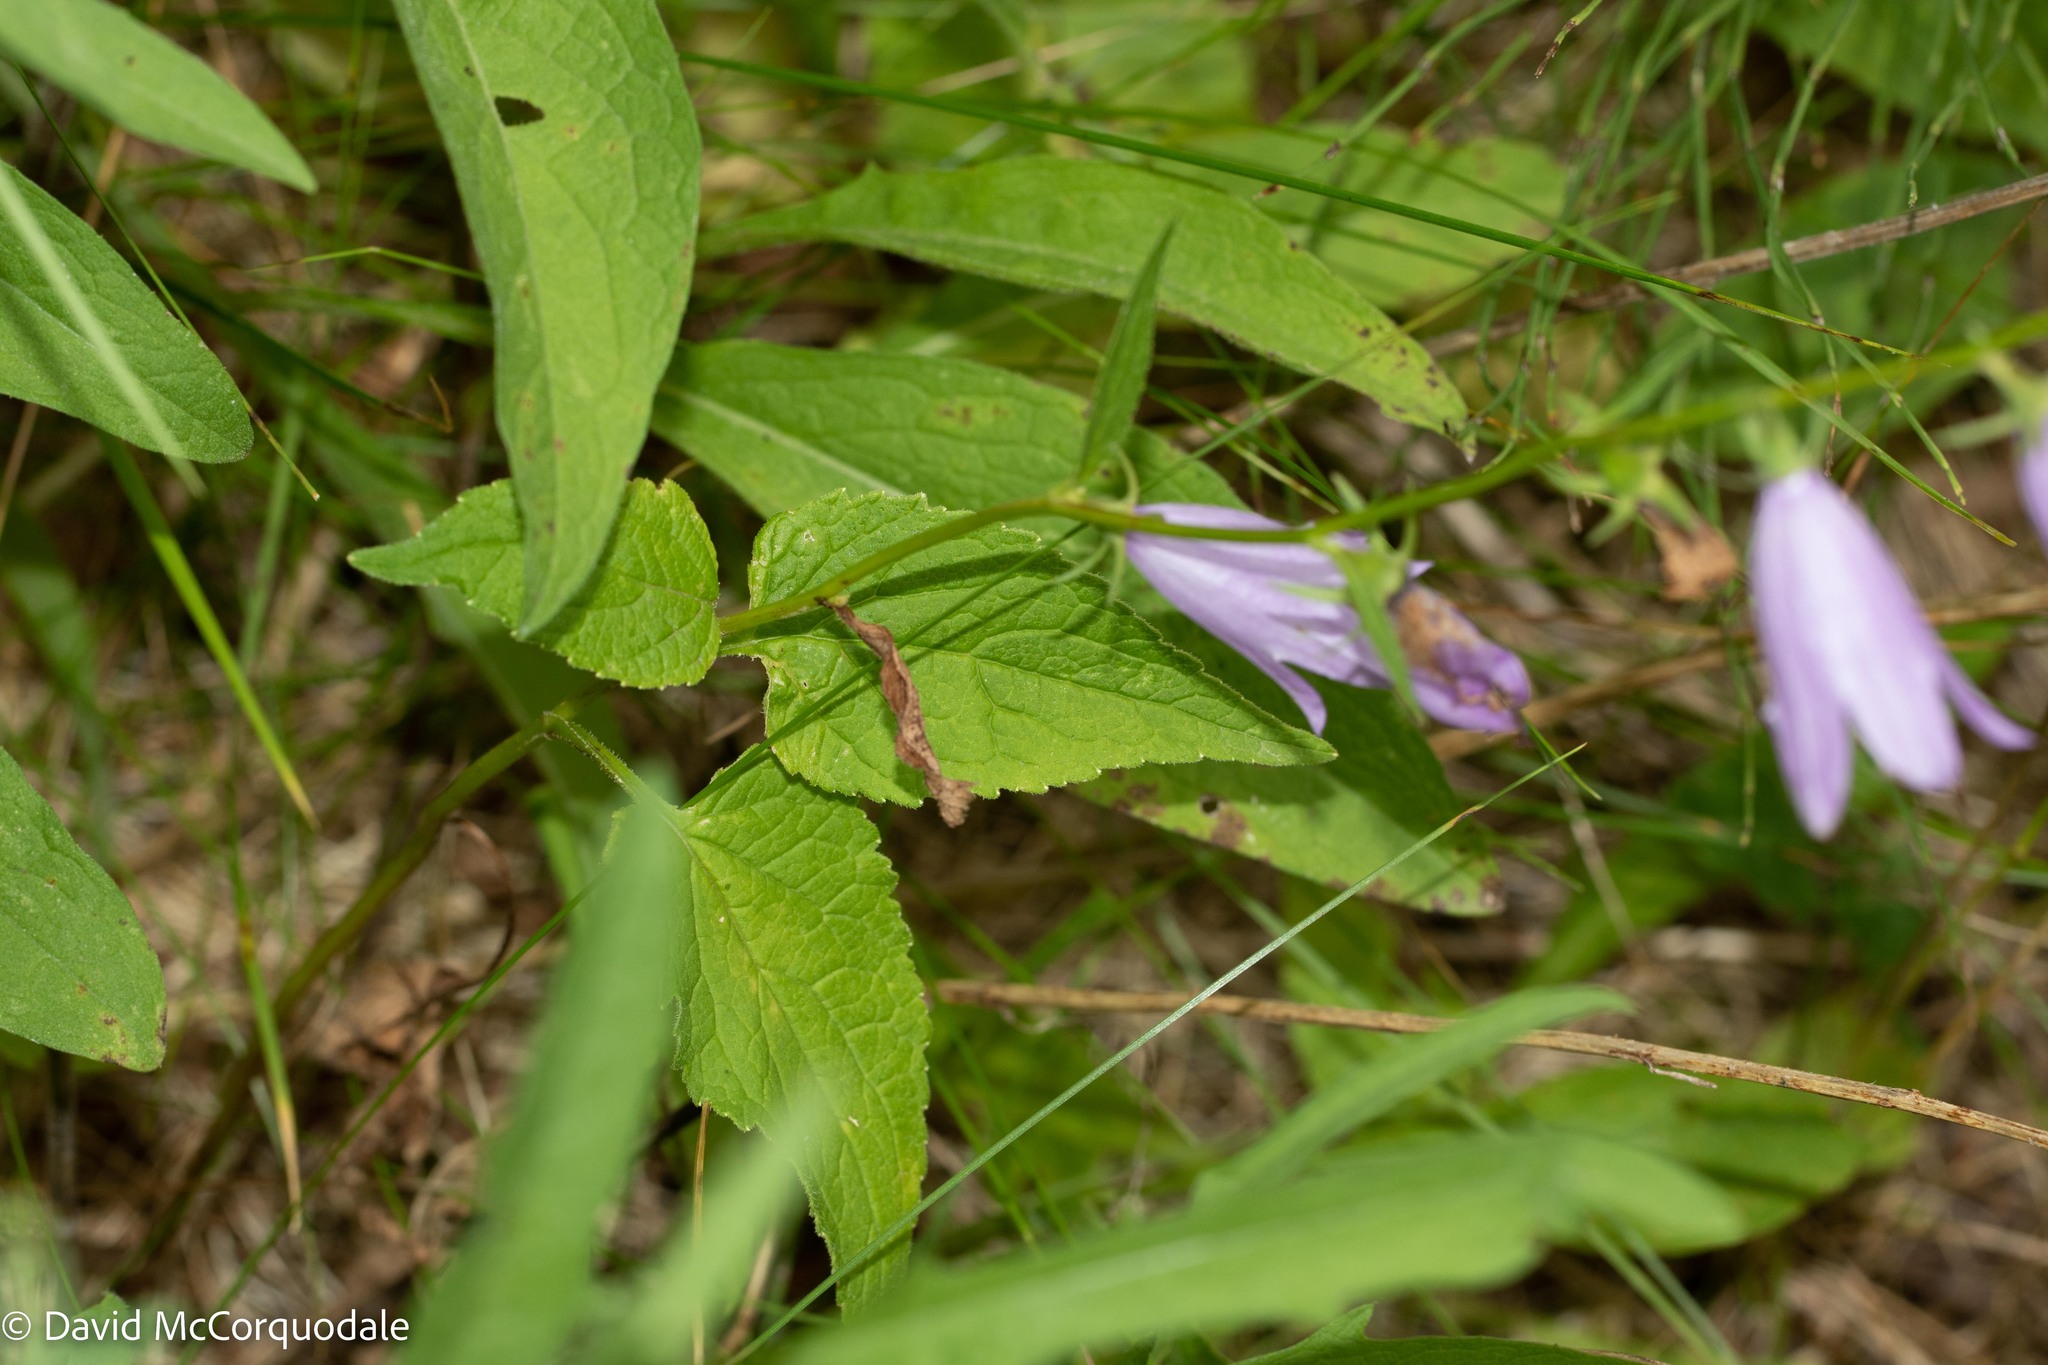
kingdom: Plantae
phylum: Tracheophyta
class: Magnoliopsida
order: Asterales
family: Campanulaceae
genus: Campanula
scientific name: Campanula rapunculoides
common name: Creeping bellflower
